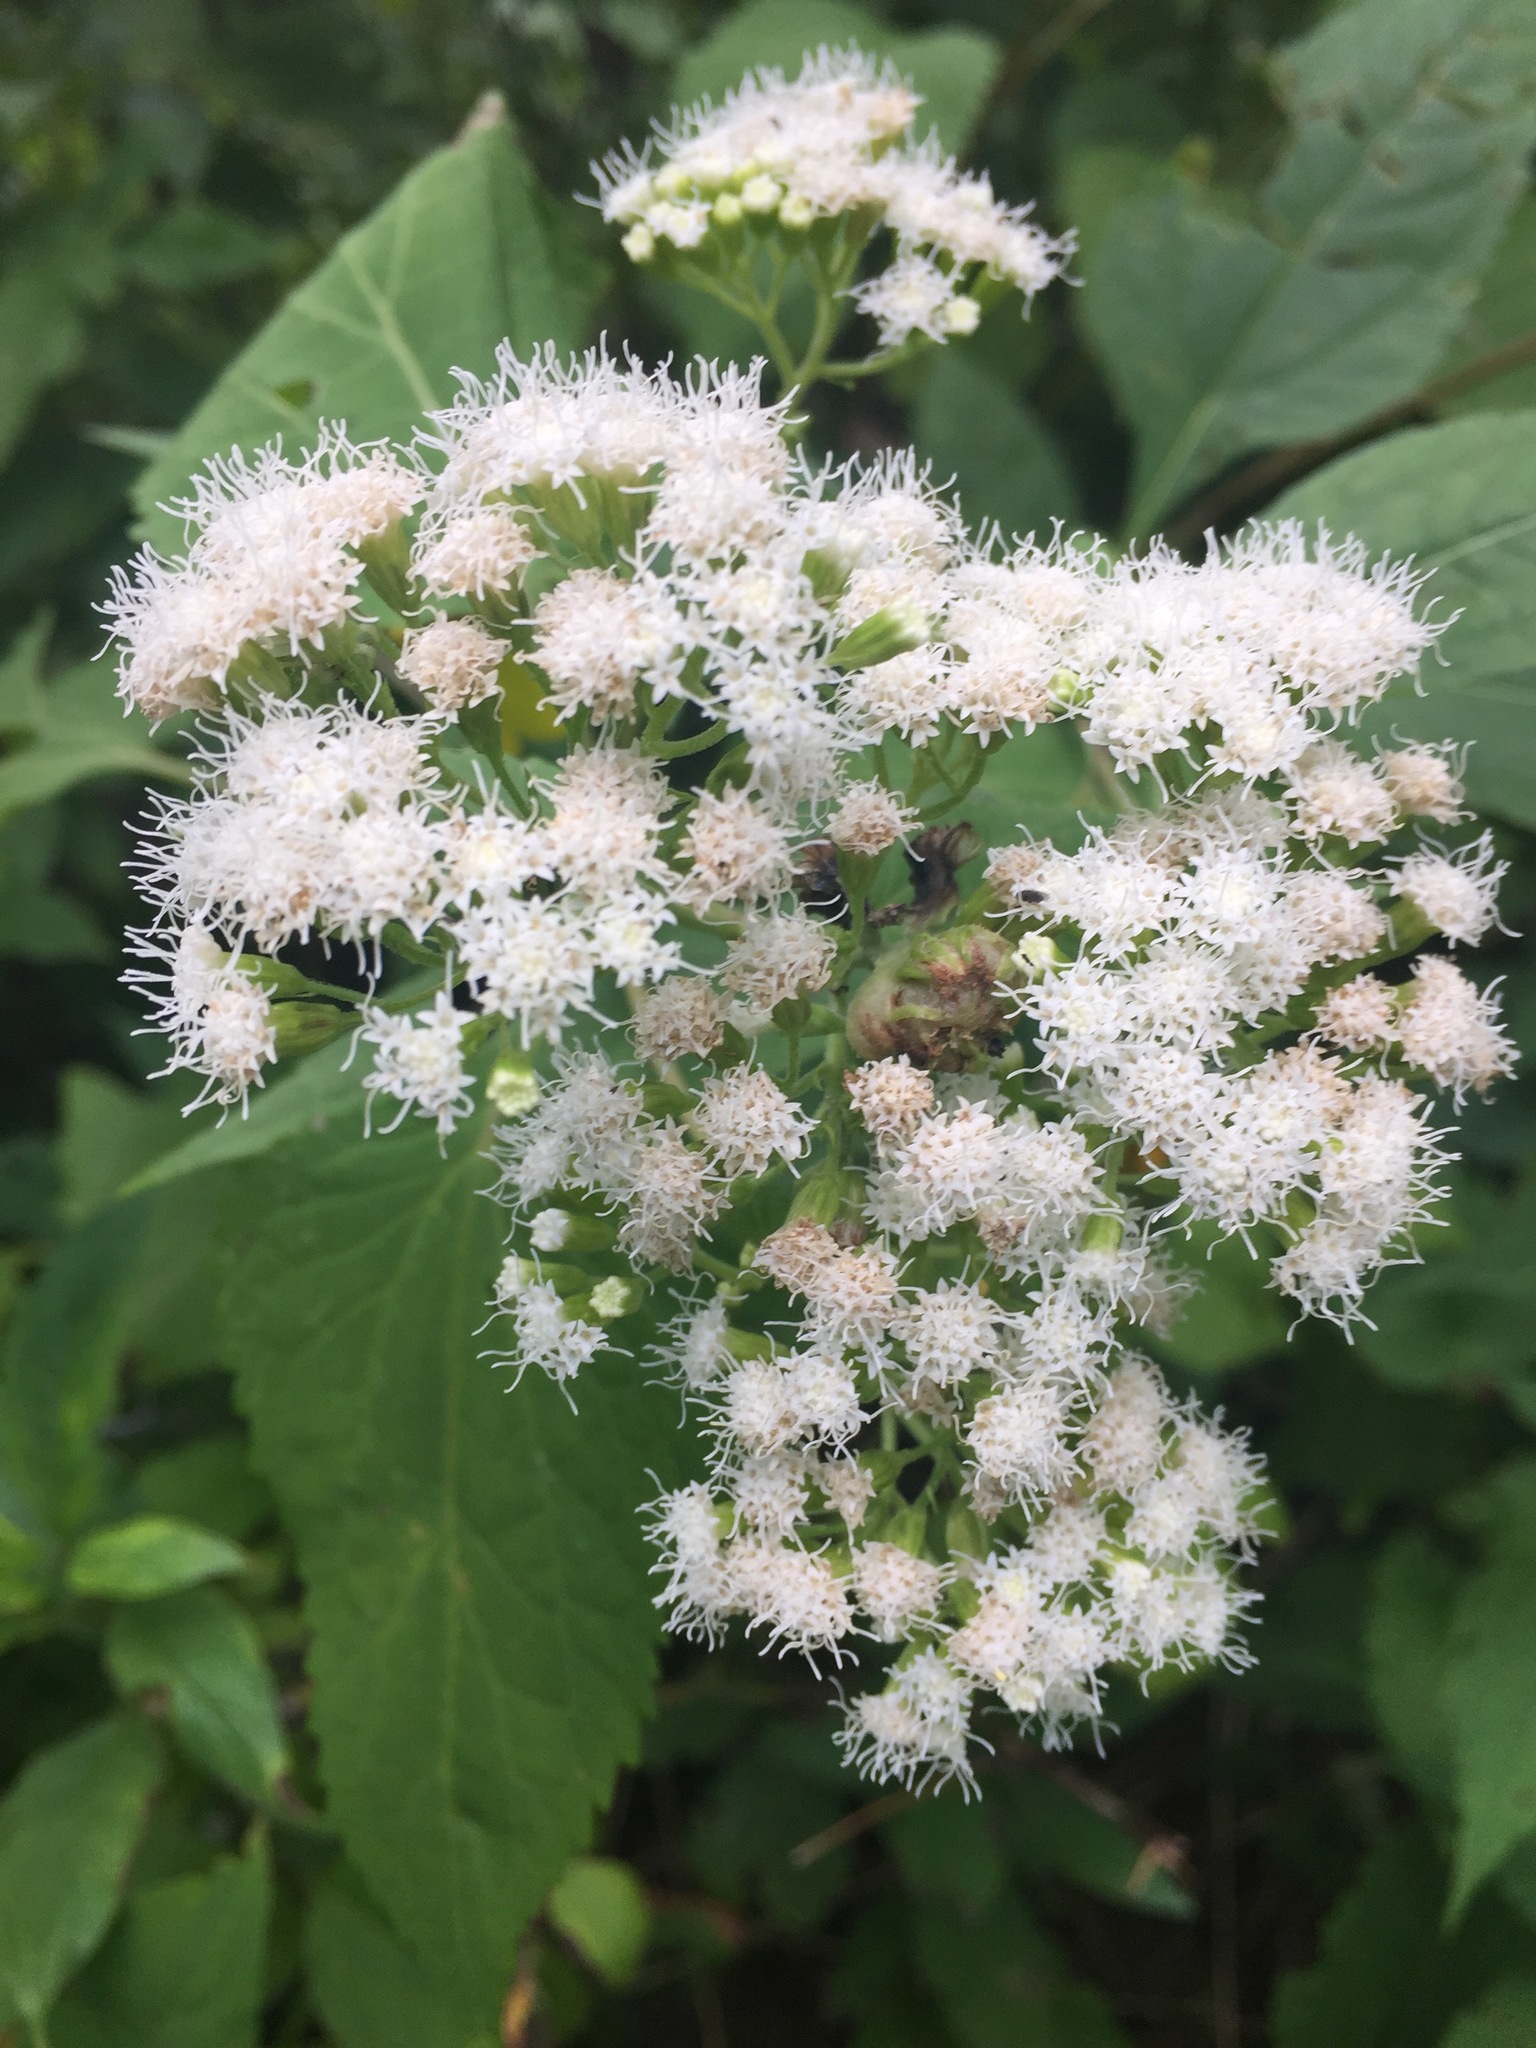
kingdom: Plantae
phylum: Tracheophyta
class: Magnoliopsida
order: Asterales
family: Asteraceae
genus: Ageratina
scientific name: Ageratina altissima
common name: White snakeroot
